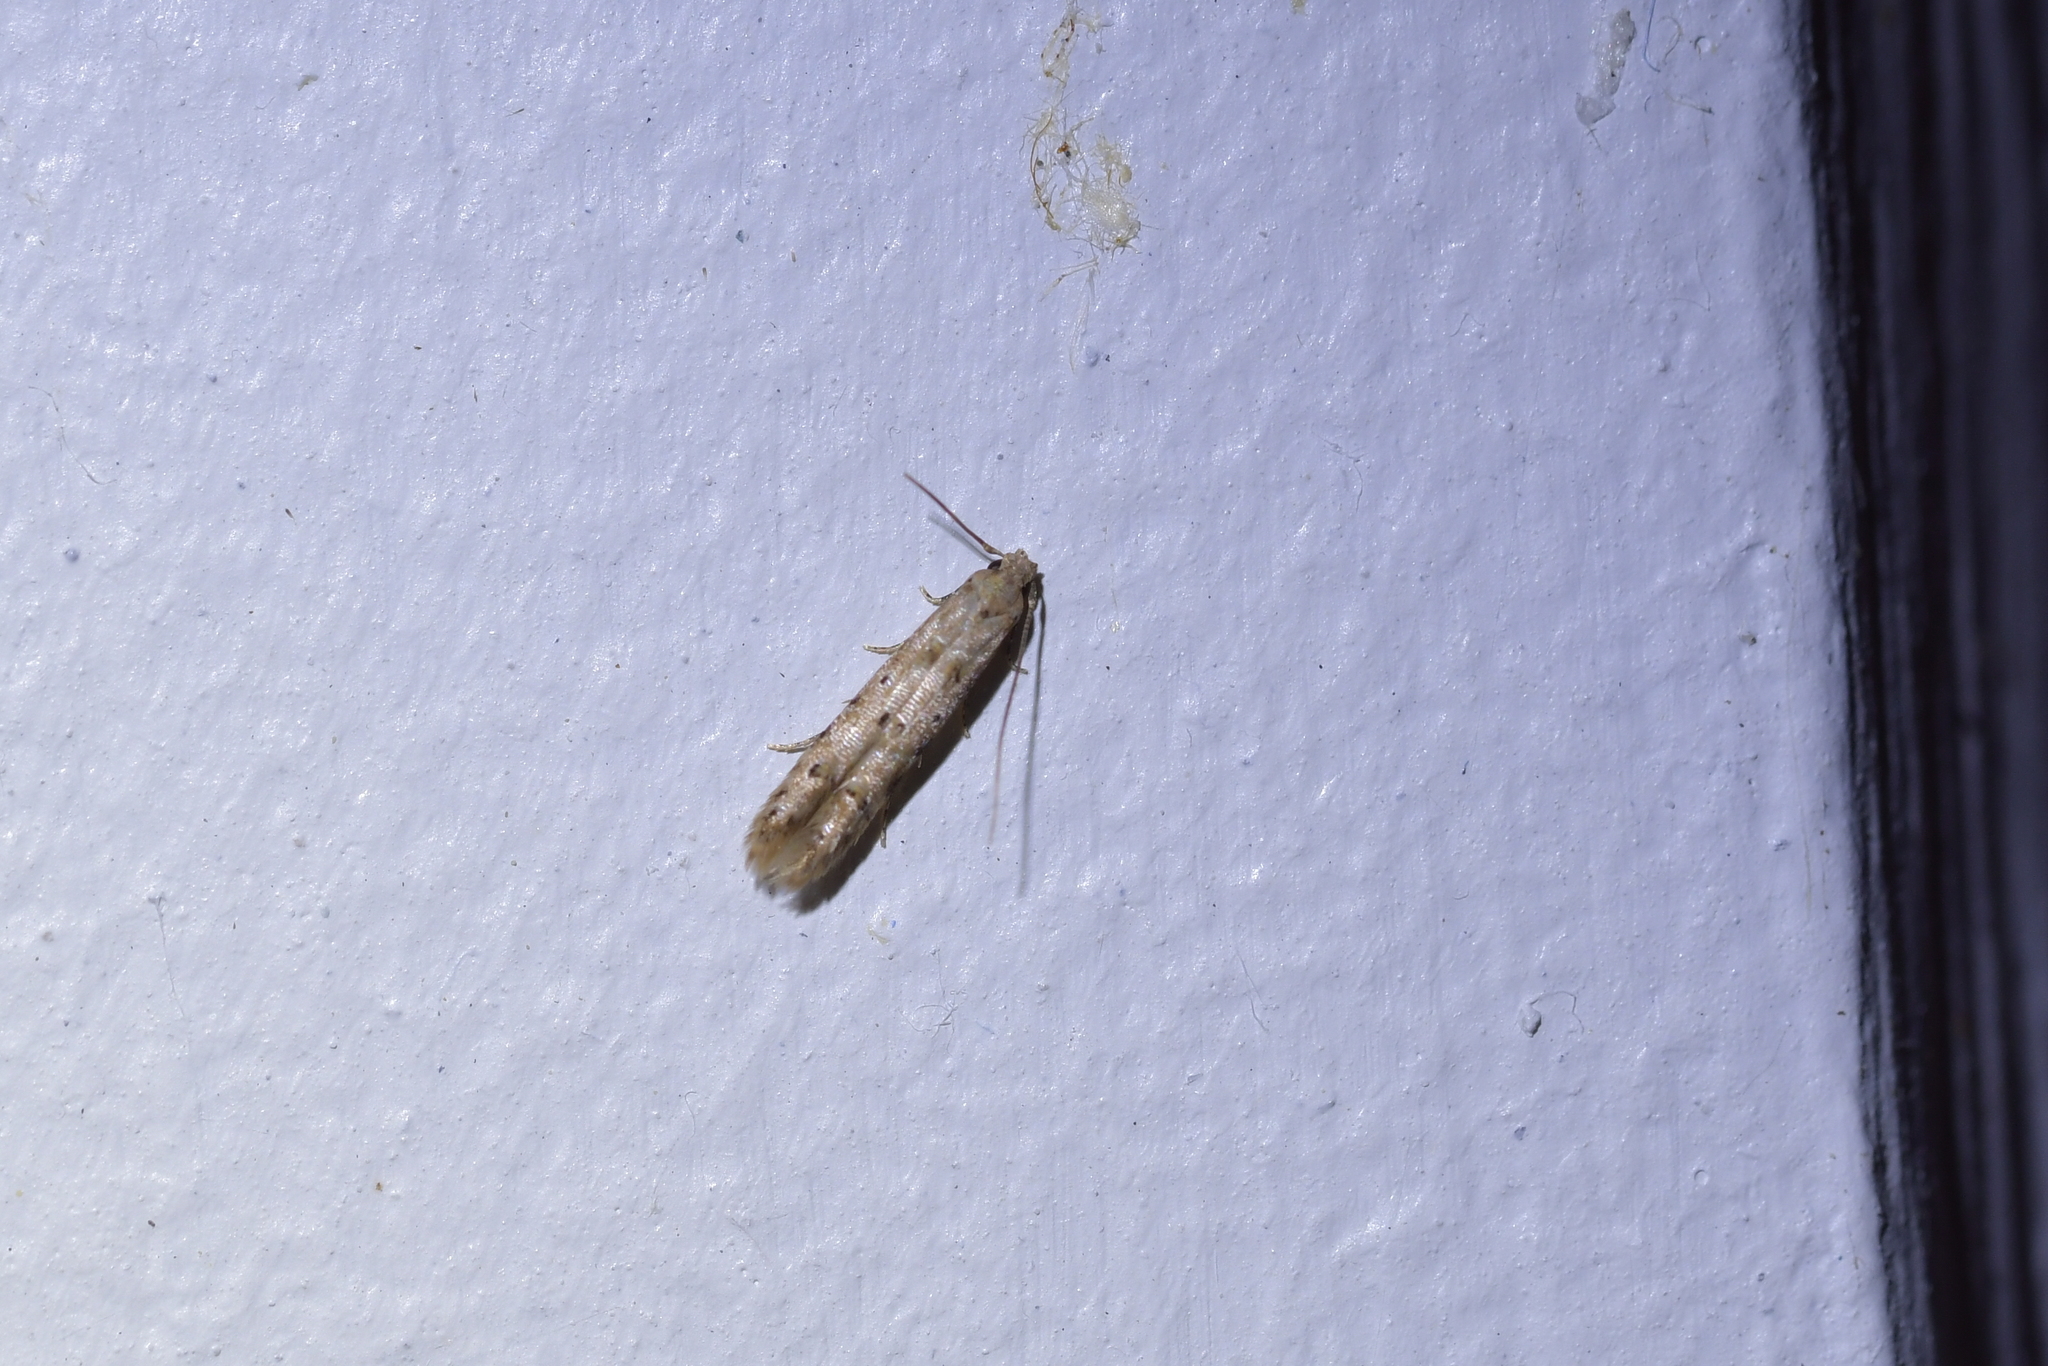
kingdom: Animalia
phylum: Arthropoda
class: Insecta
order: Lepidoptera
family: Elachistidae
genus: Microcolona
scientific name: Microcolona limodes
